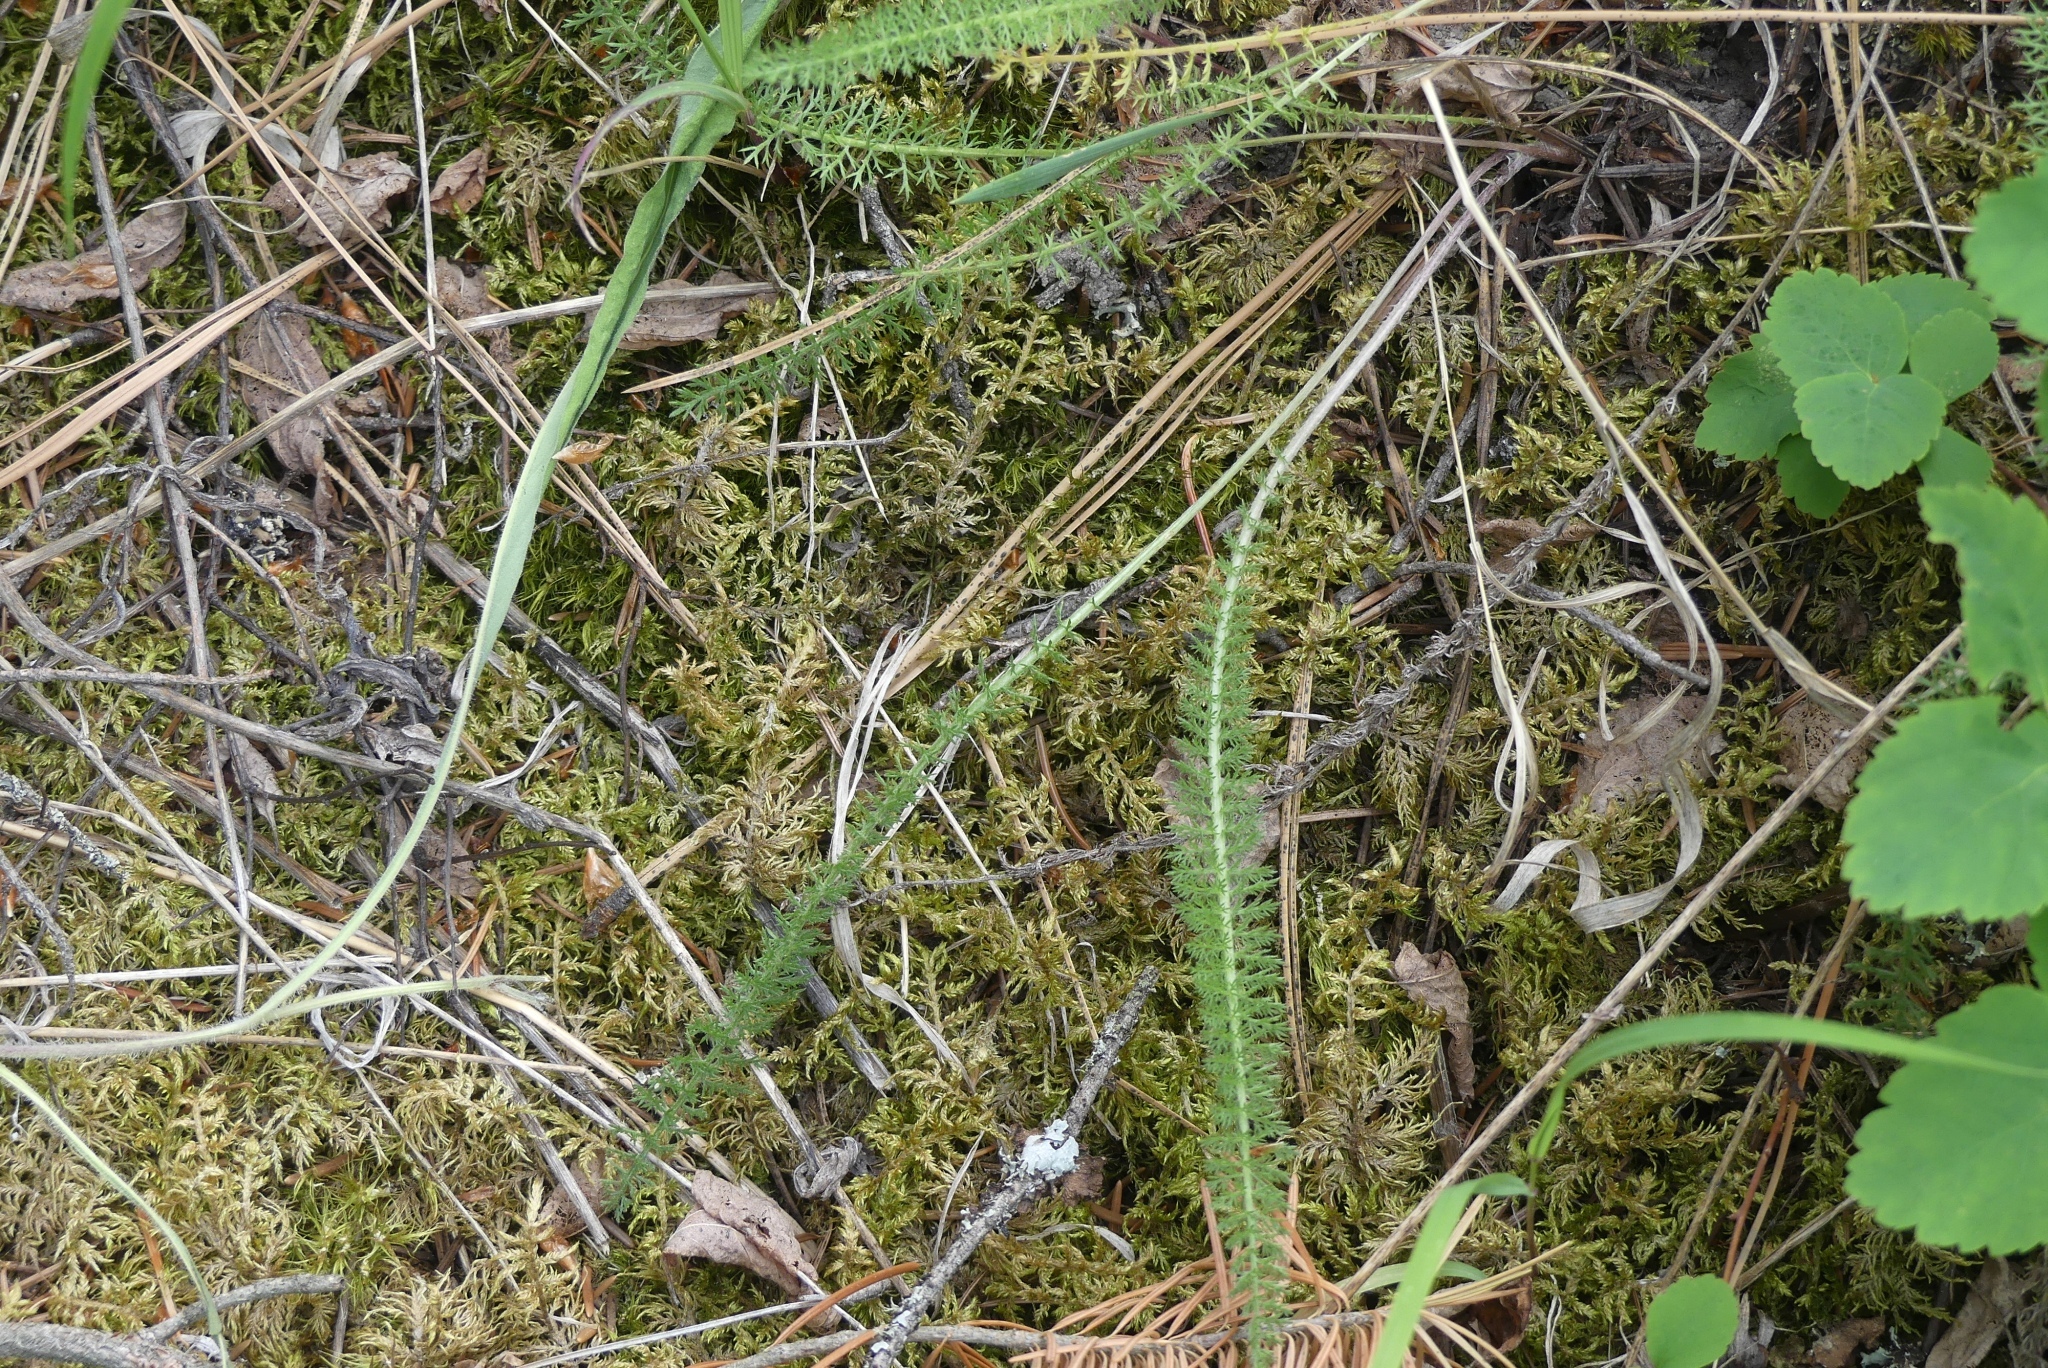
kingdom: Plantae
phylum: Tracheophyta
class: Magnoliopsida
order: Asterales
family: Asteraceae
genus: Achillea
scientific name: Achillea millefolium
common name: Yarrow
